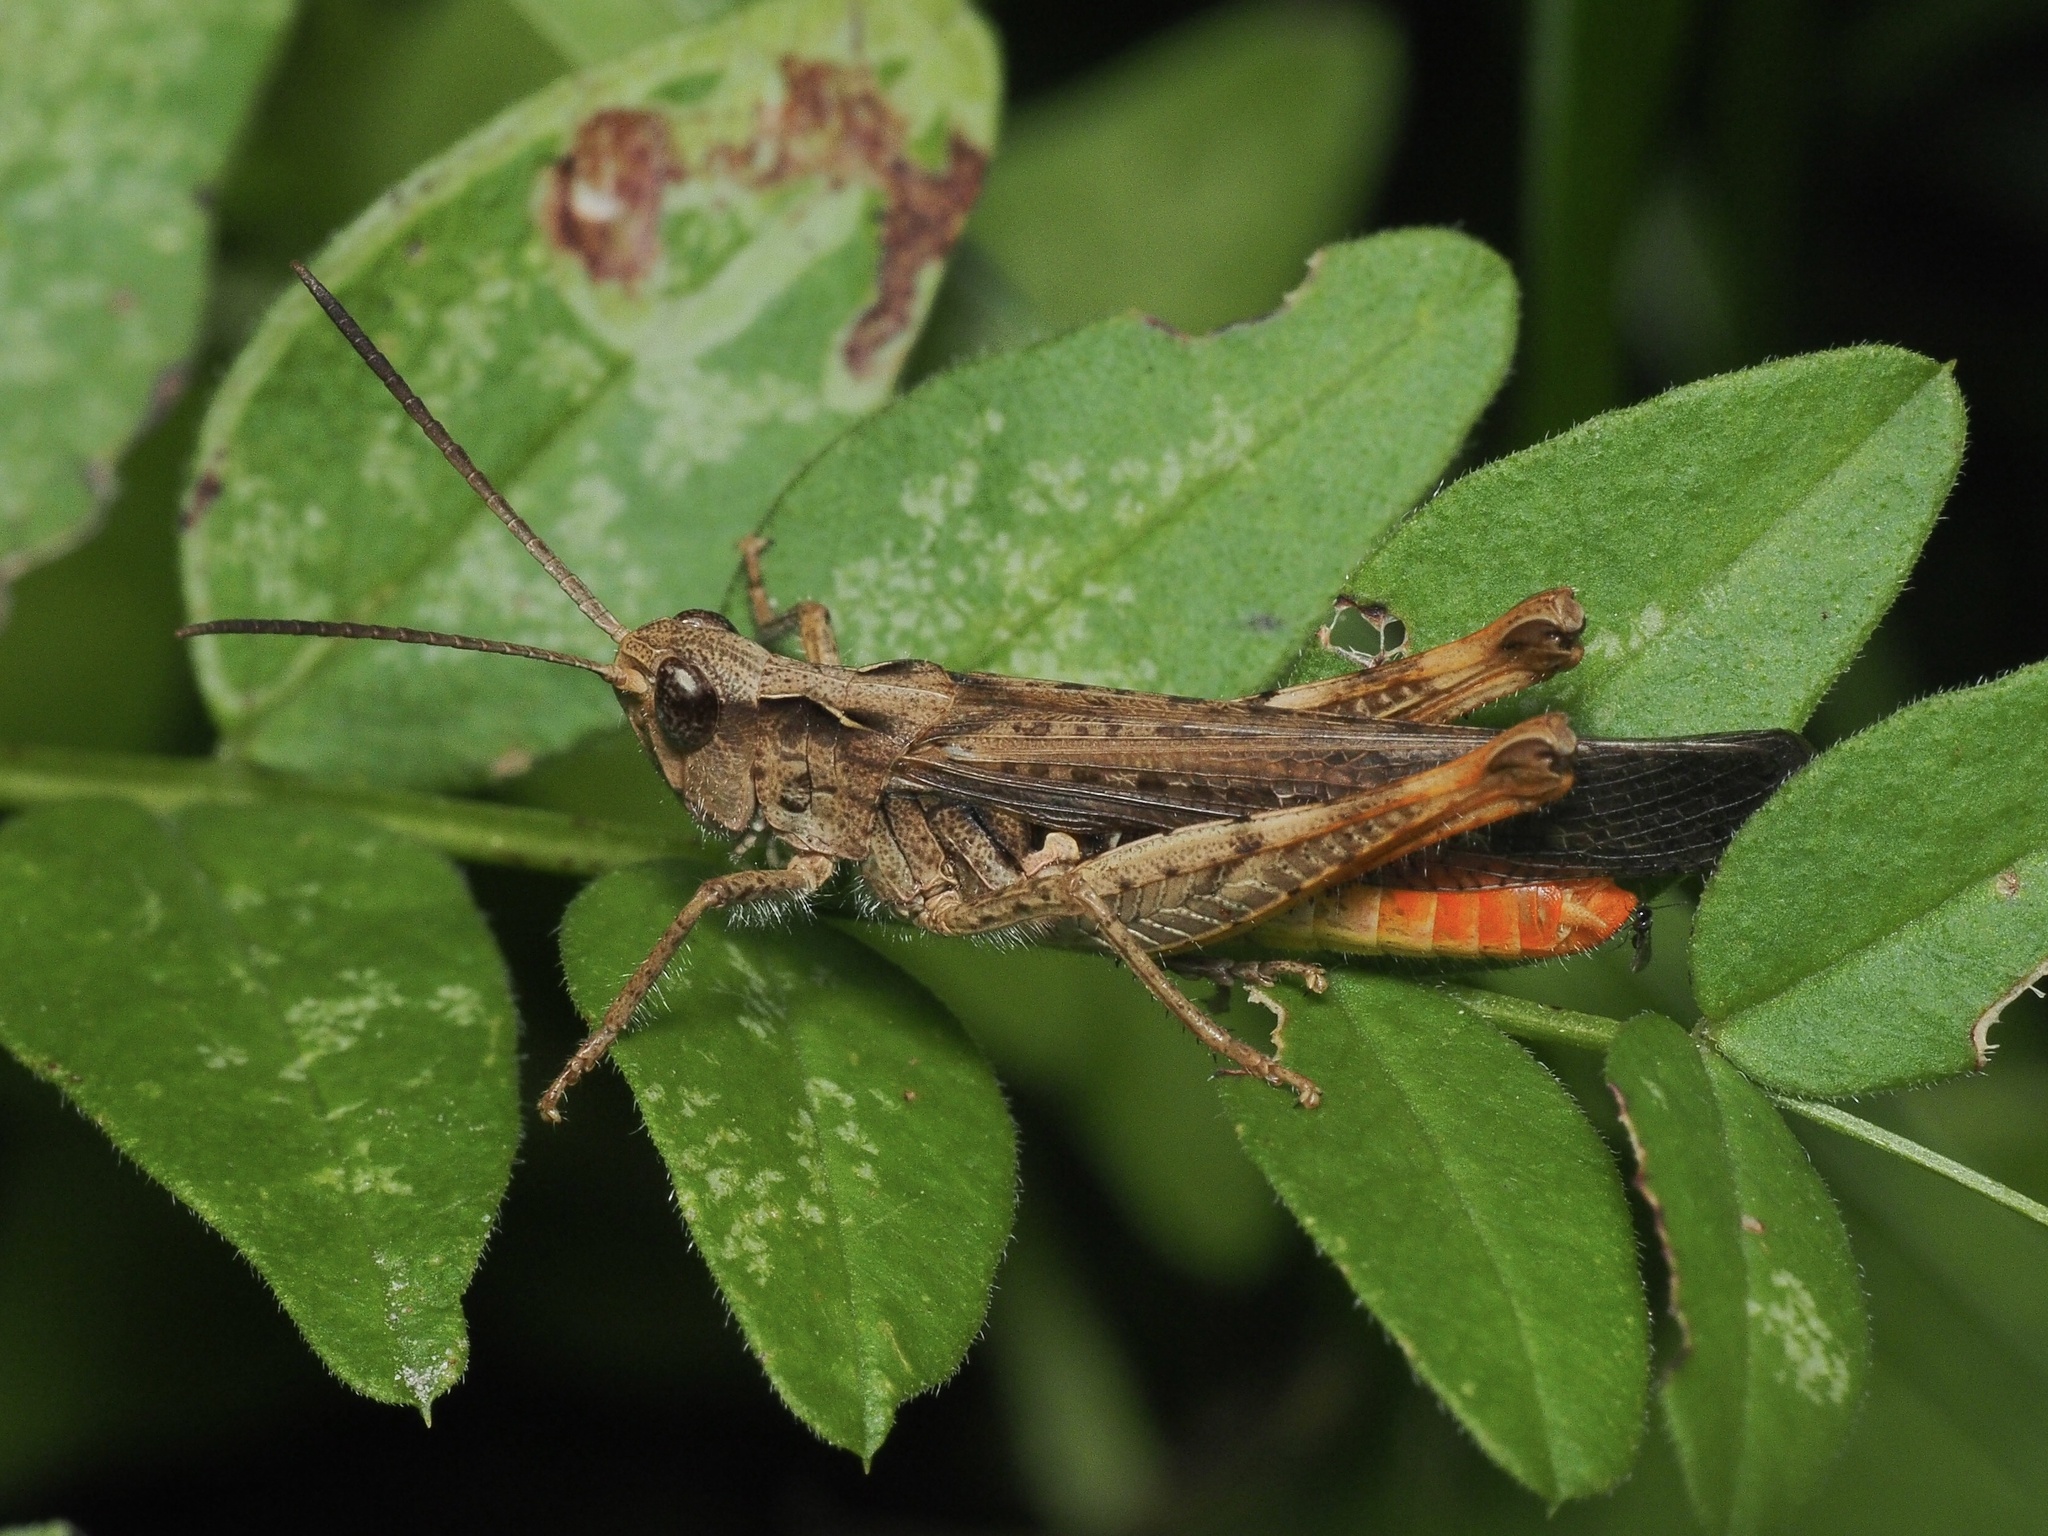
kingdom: Animalia
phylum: Arthropoda
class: Insecta
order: Orthoptera
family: Acrididae
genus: Chorthippus
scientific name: Chorthippus brunneus
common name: Field grasshopper
